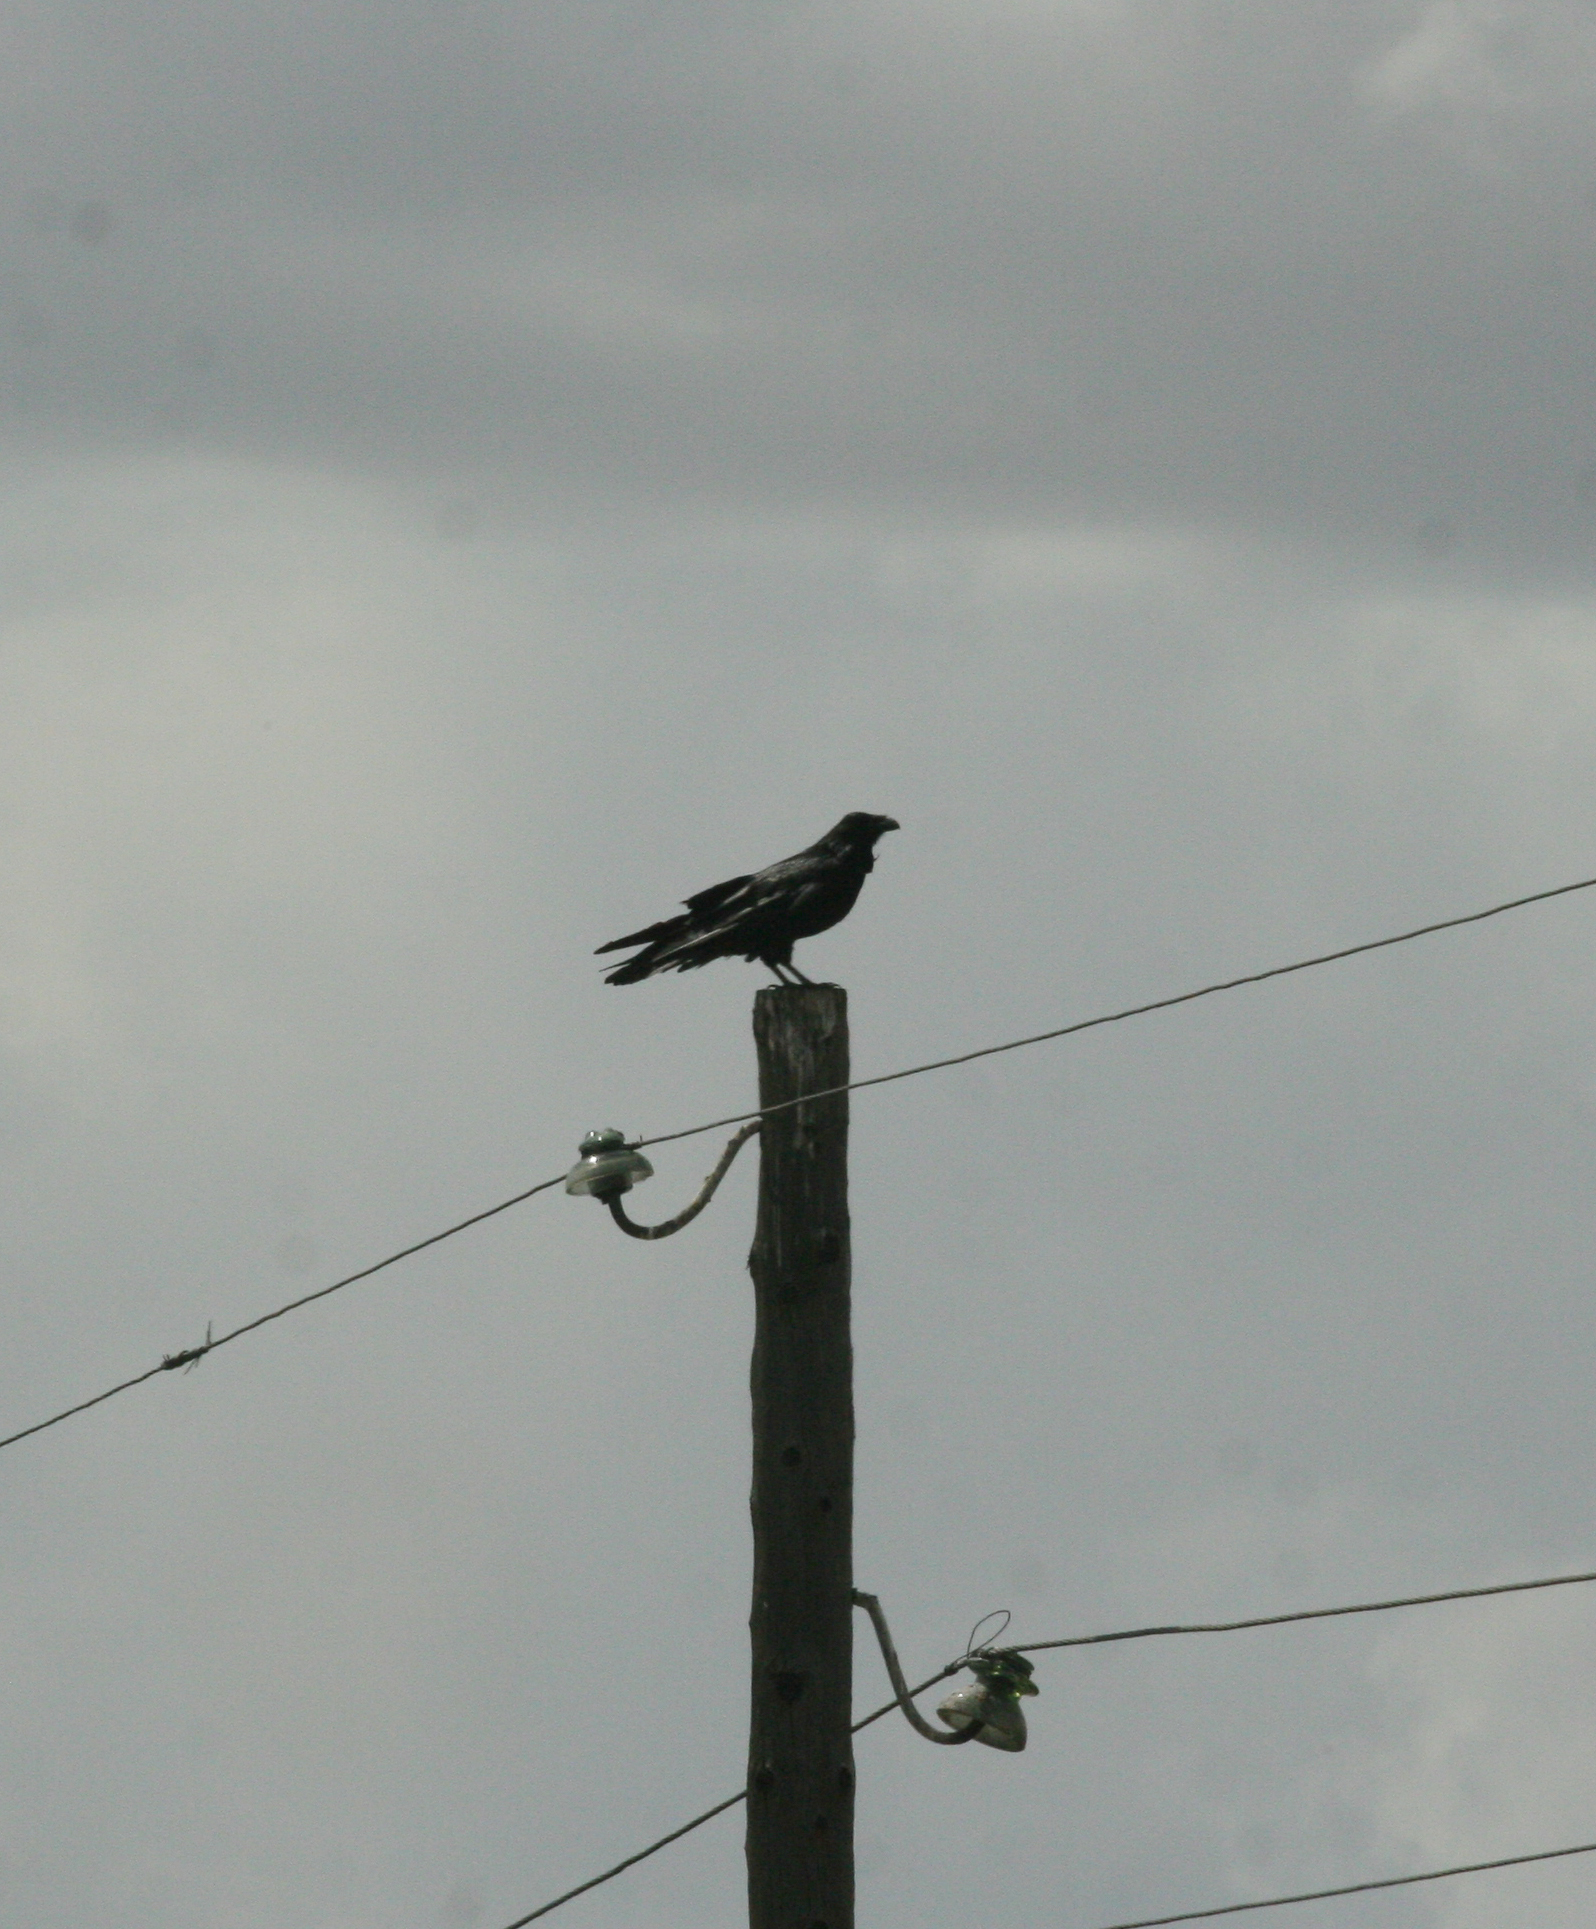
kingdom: Animalia
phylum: Chordata
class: Aves
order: Passeriformes
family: Corvidae
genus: Corvus
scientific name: Corvus corax
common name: Common raven
